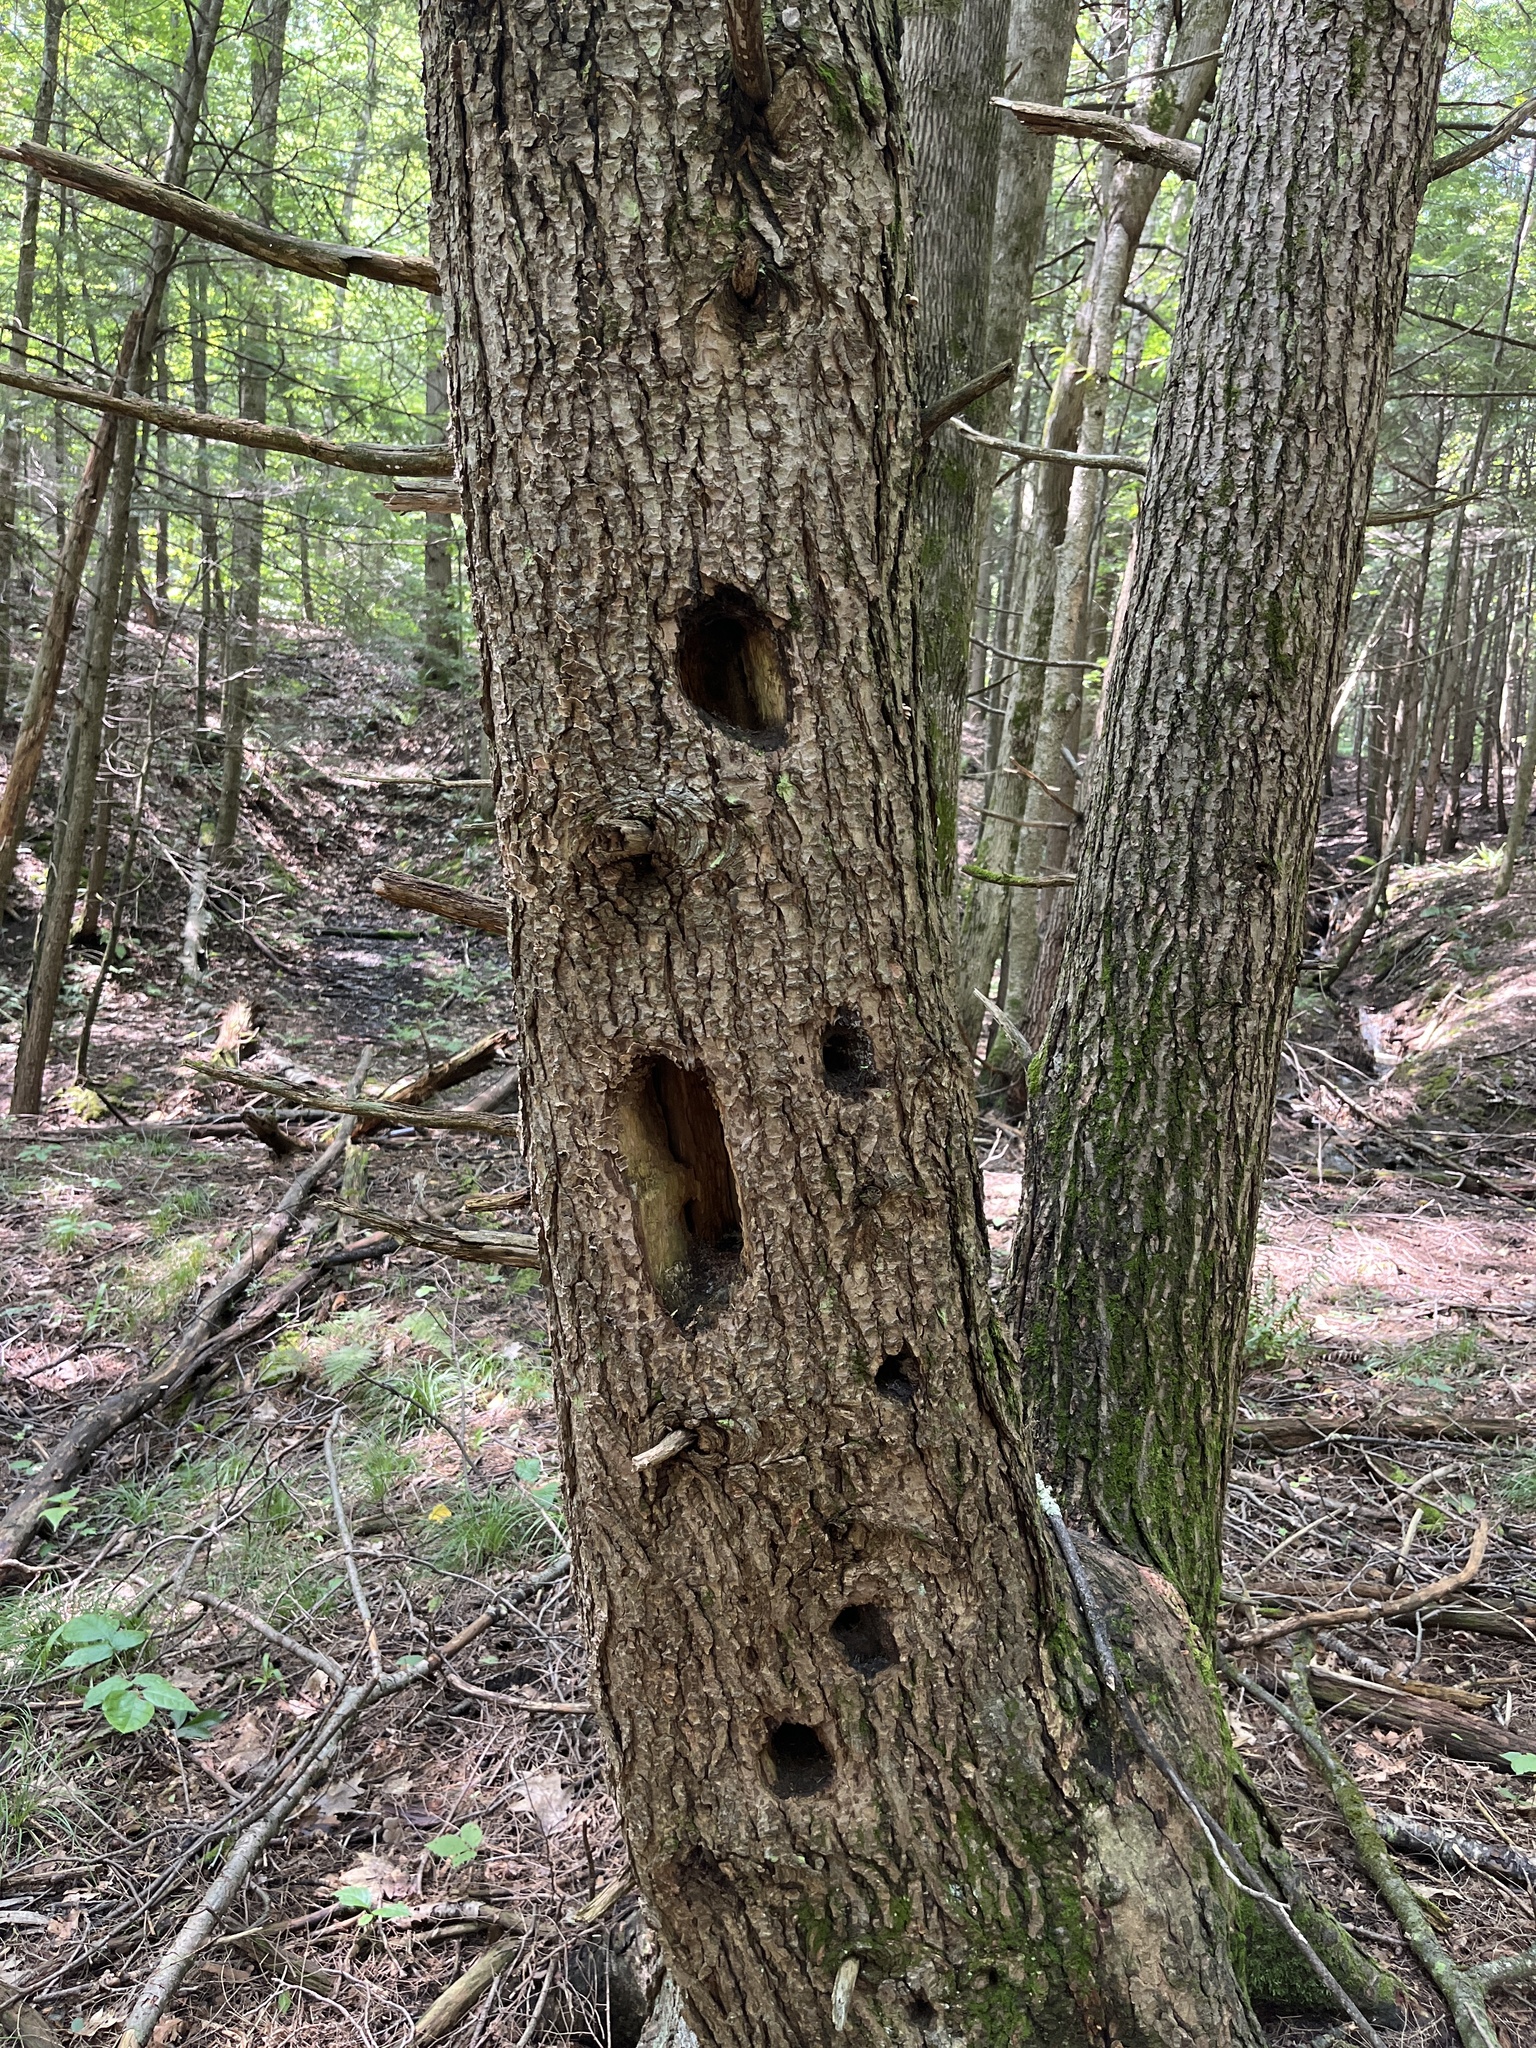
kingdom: Animalia
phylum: Chordata
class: Aves
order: Piciformes
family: Picidae
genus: Dryocopus
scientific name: Dryocopus pileatus
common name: Pileated woodpecker
